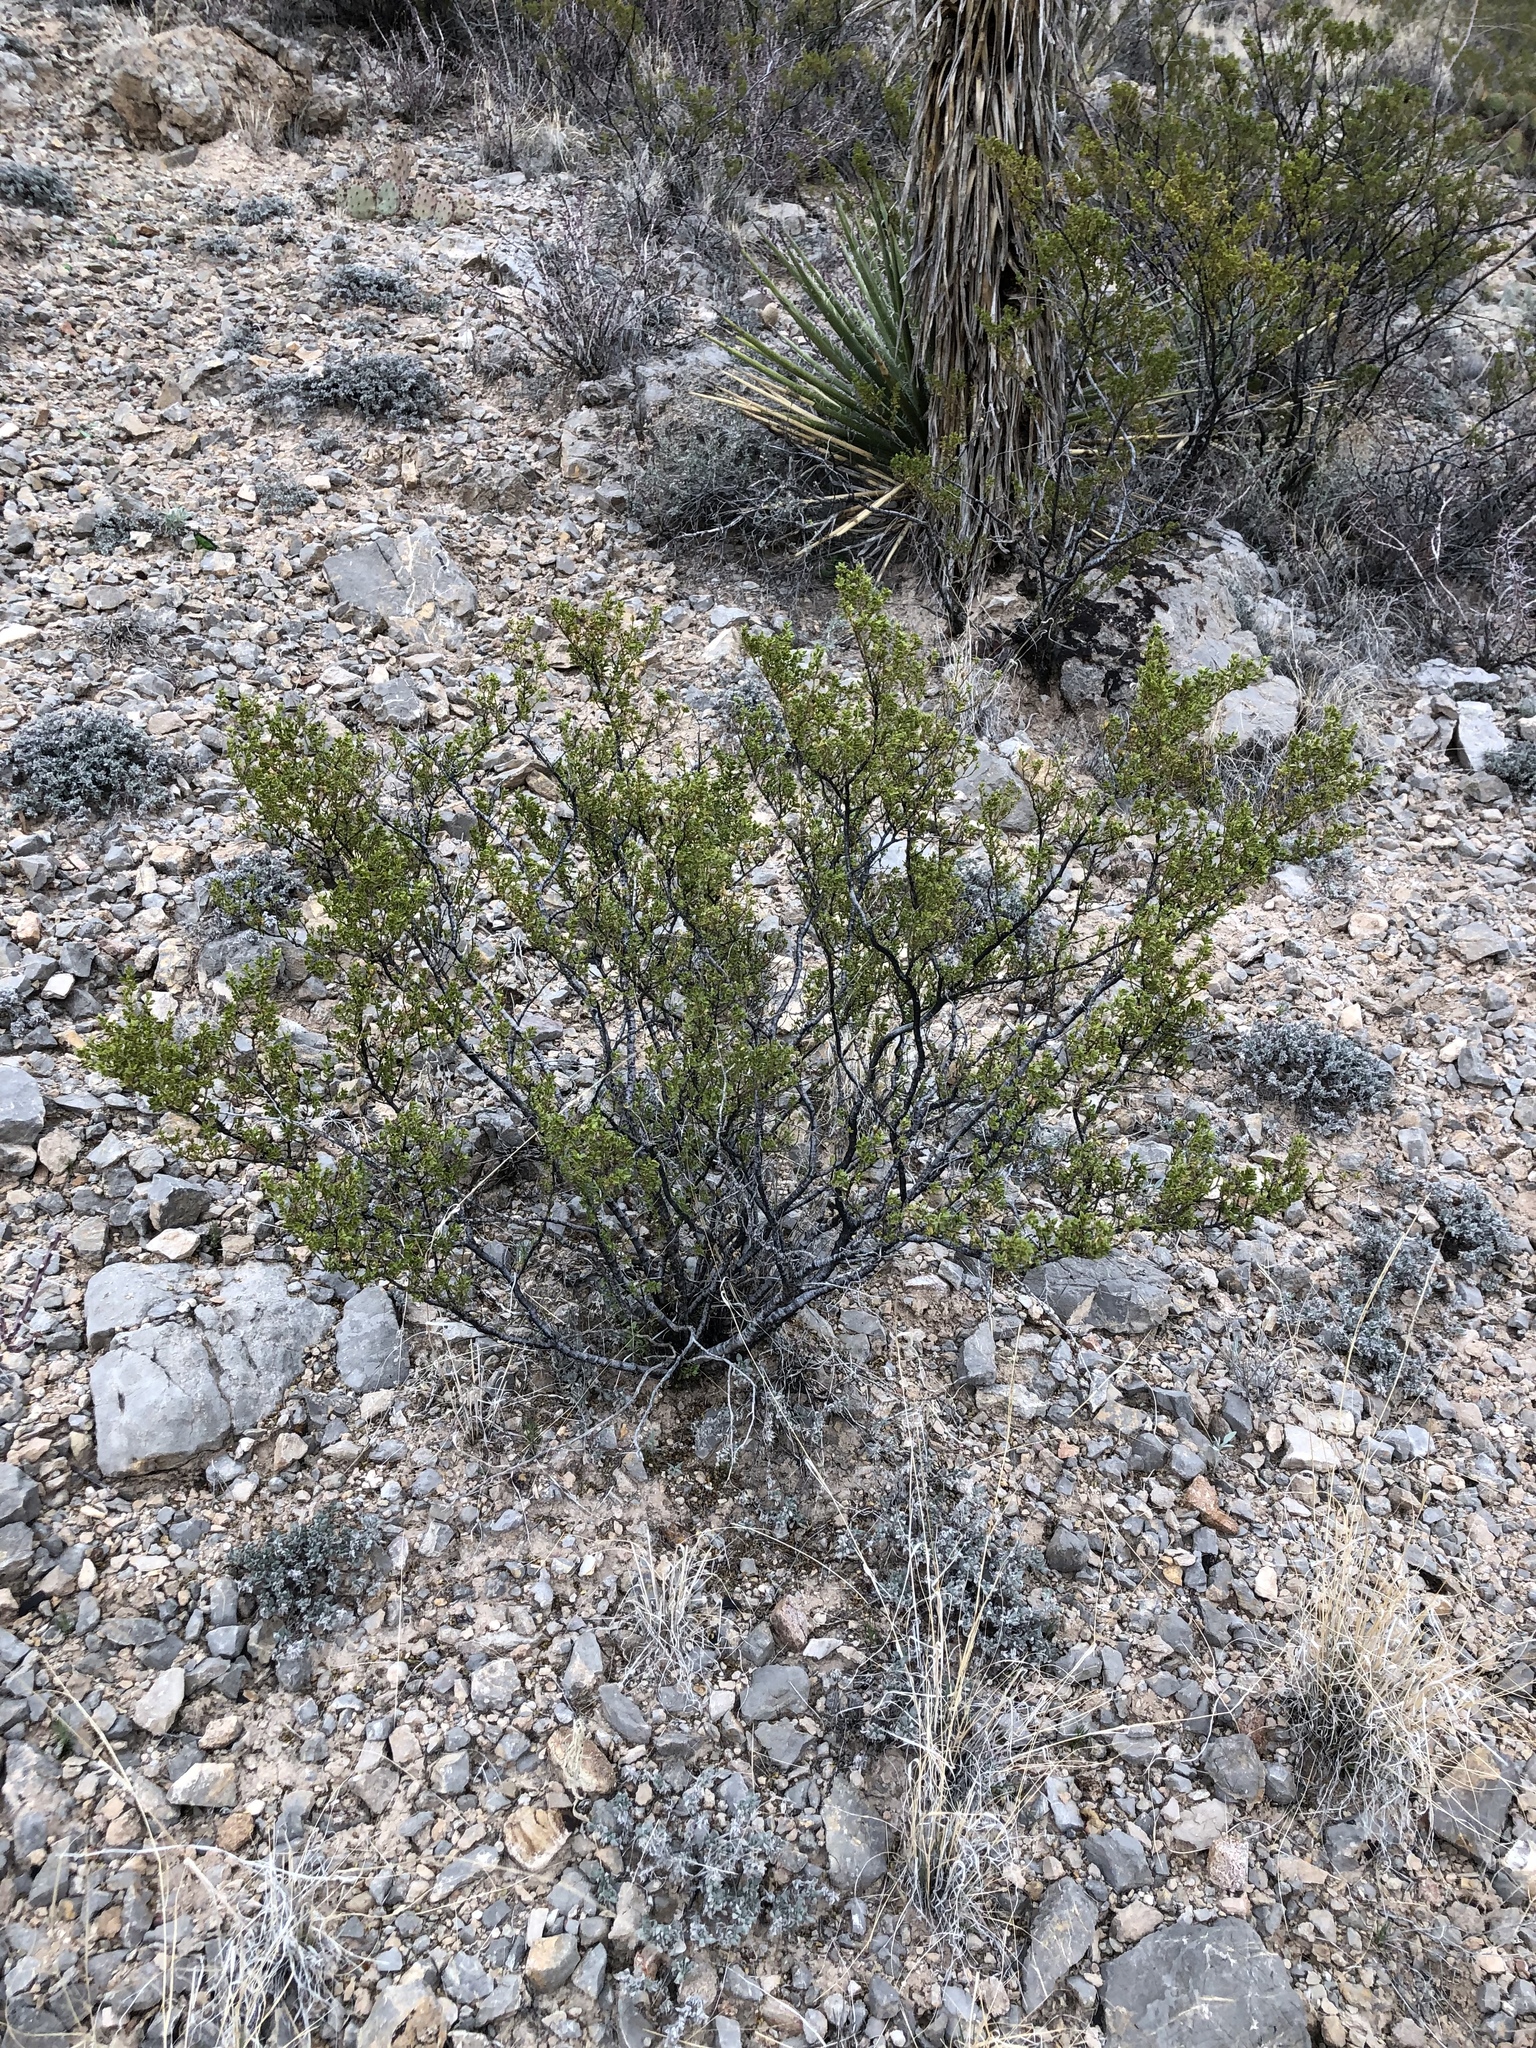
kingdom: Plantae
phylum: Tracheophyta
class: Magnoliopsida
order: Zygophyllales
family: Zygophyllaceae
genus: Larrea
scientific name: Larrea tridentata
